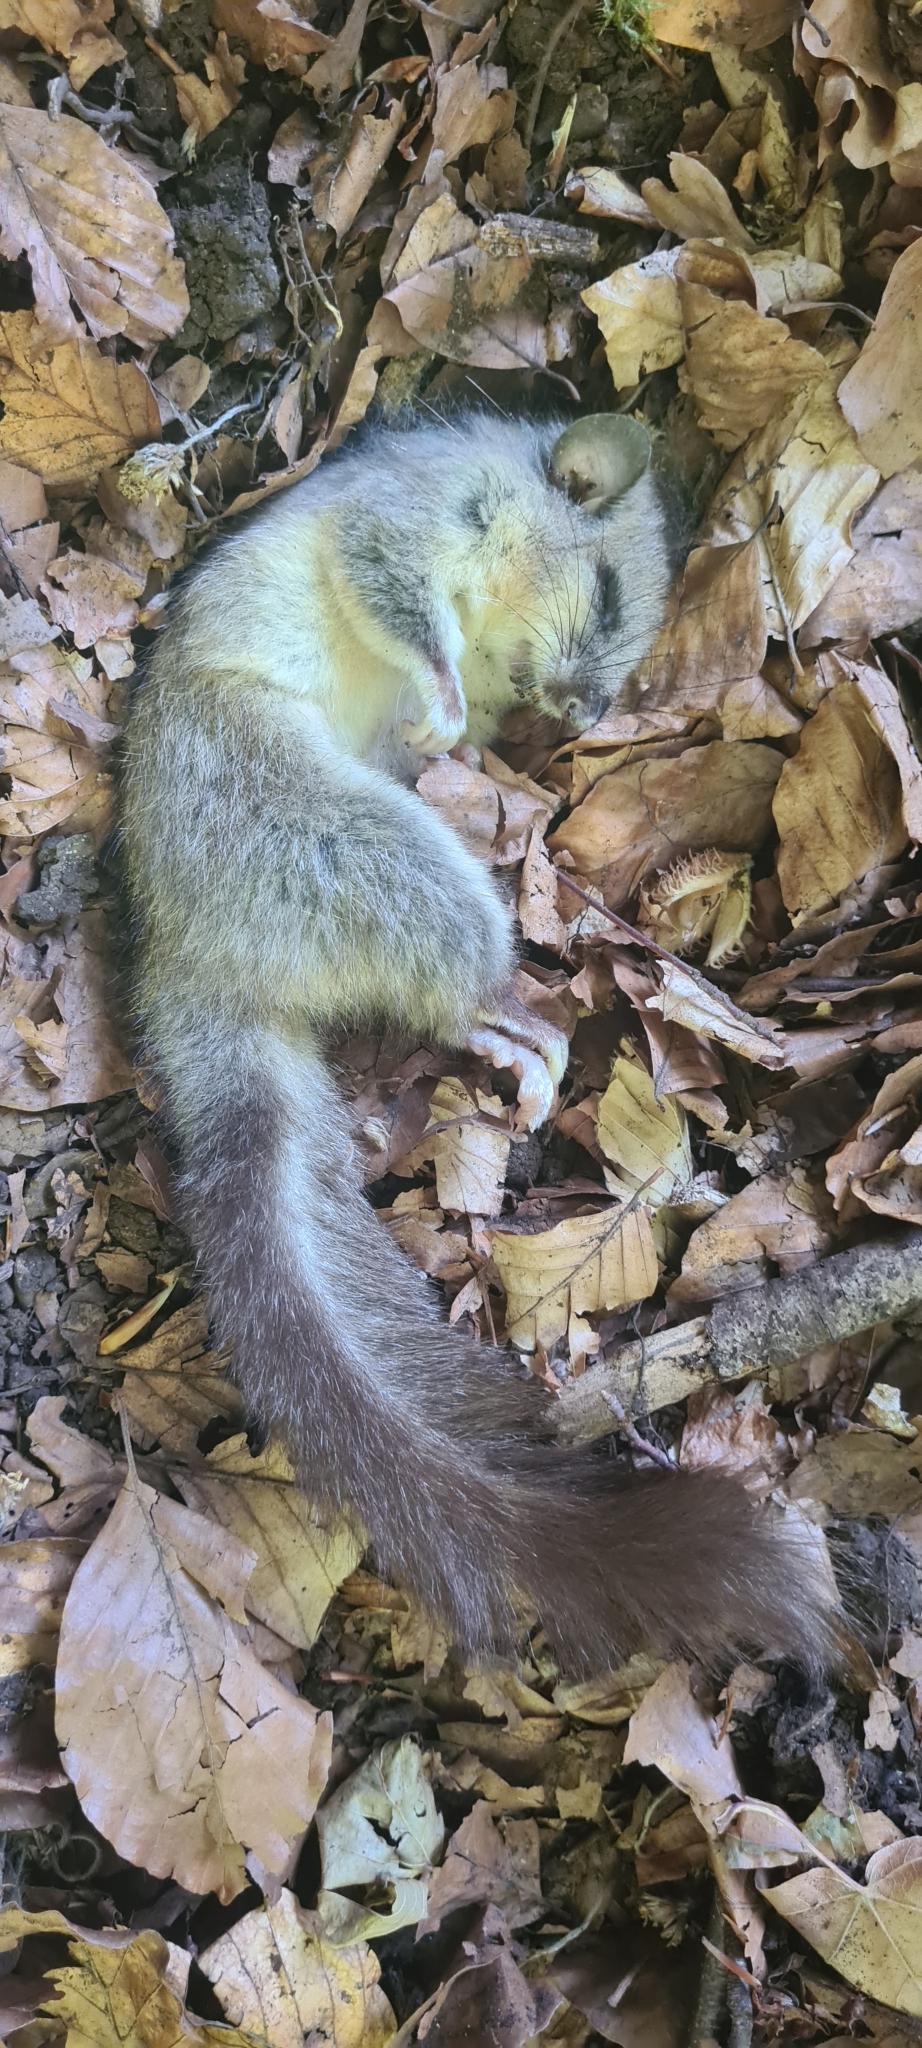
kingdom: Animalia
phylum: Chordata
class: Mammalia
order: Rodentia
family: Gliridae
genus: Glis
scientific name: Glis glis
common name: Fat dormouse
